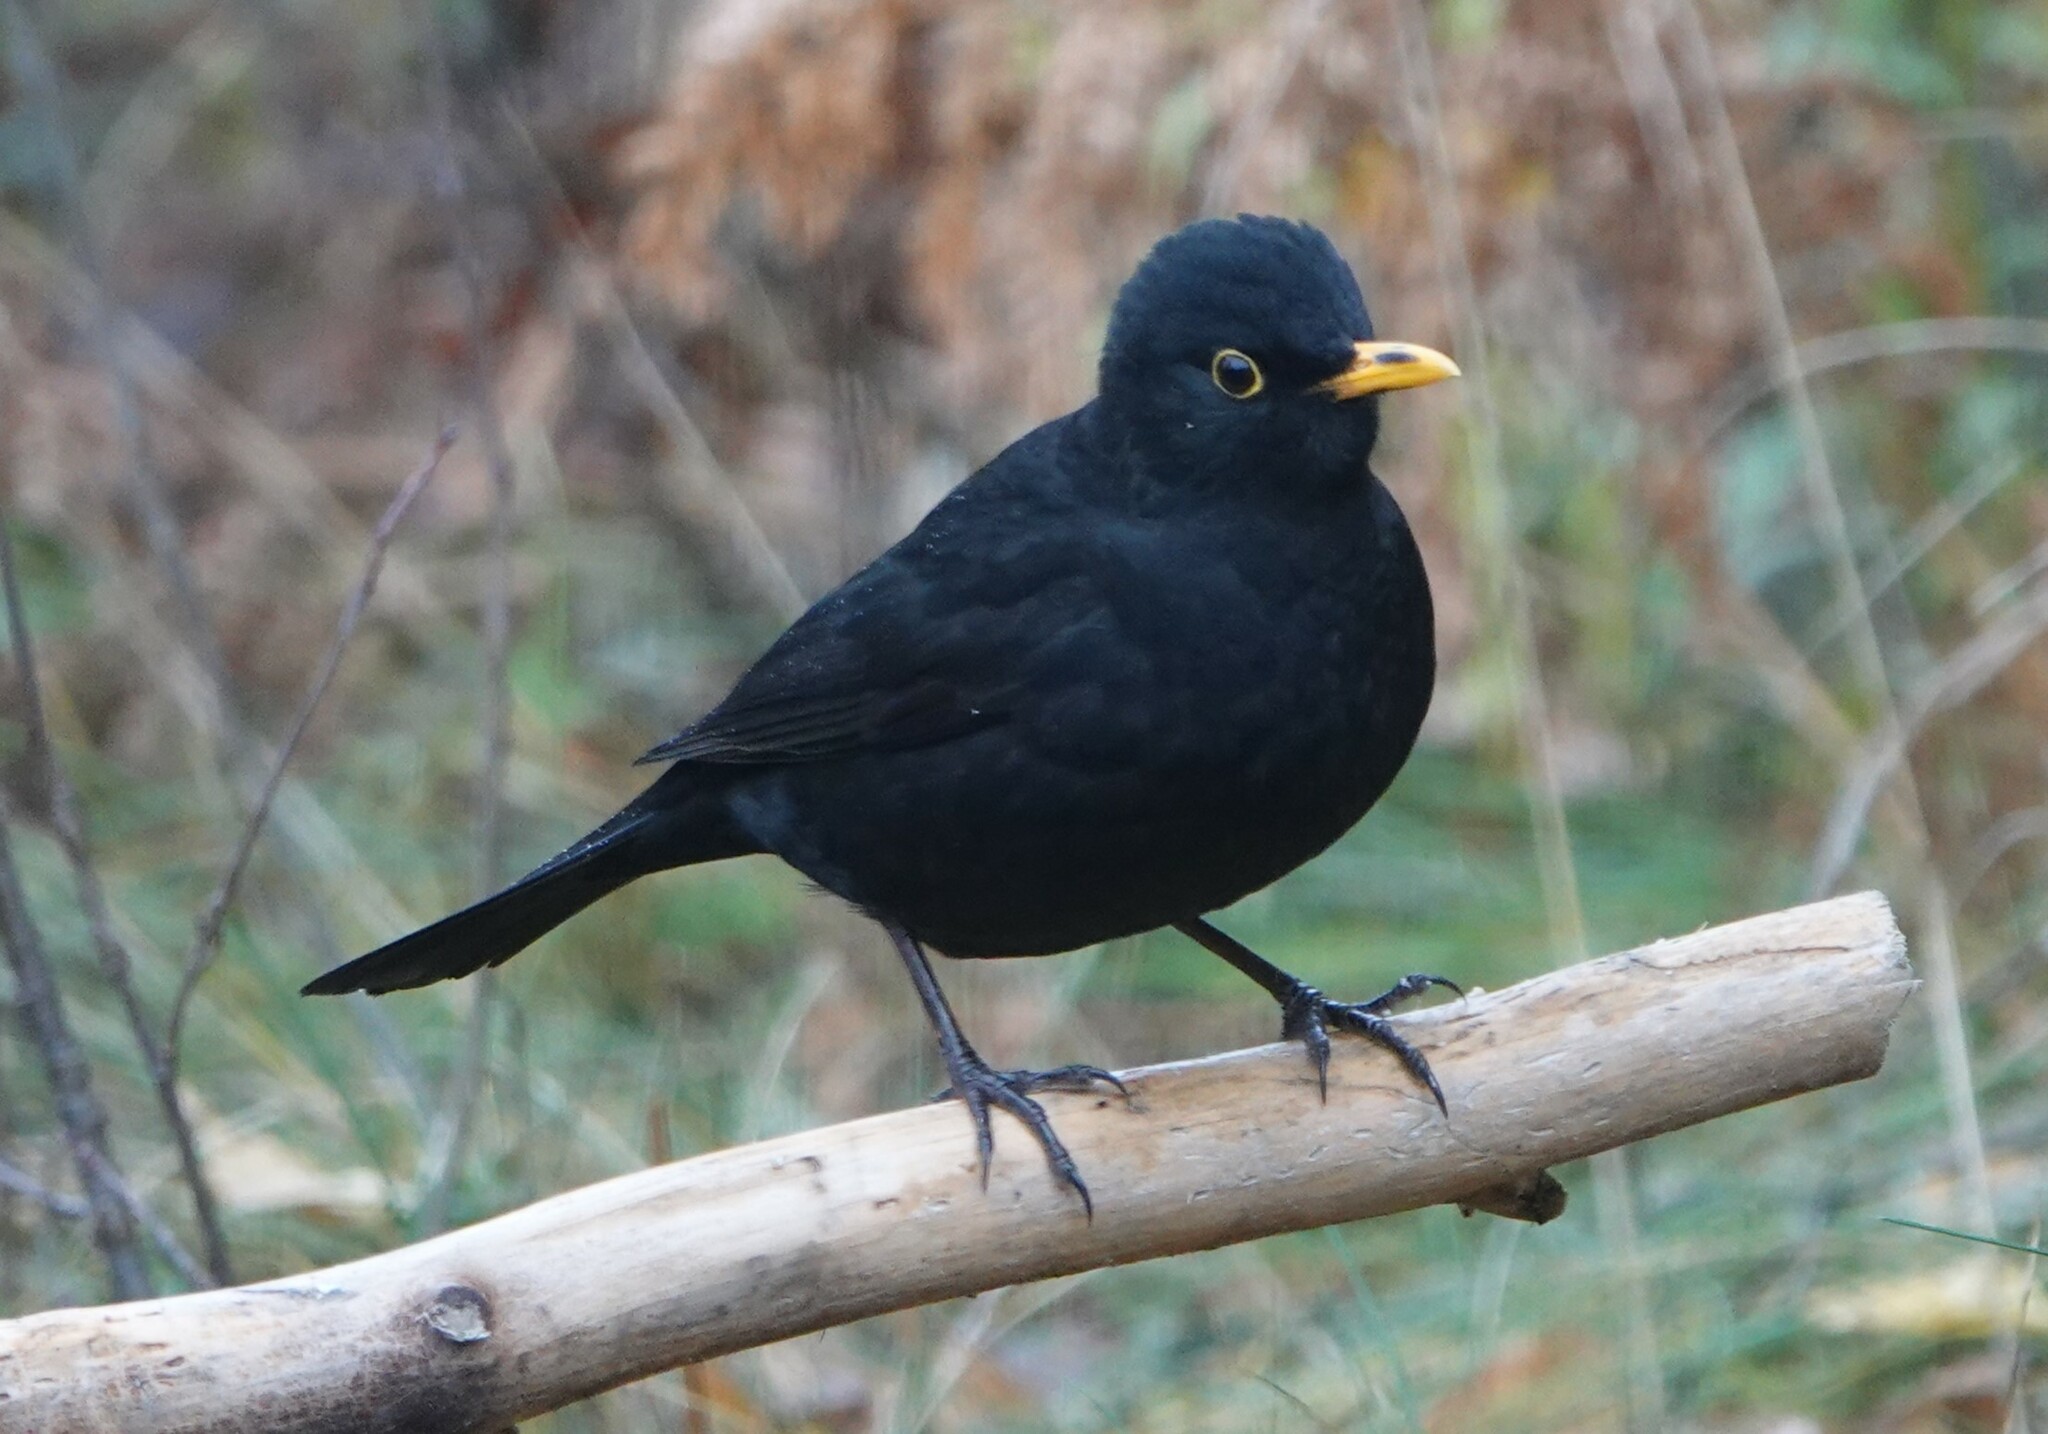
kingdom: Animalia
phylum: Chordata
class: Aves
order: Passeriformes
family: Turdidae
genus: Turdus
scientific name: Turdus merula
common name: Common blackbird
